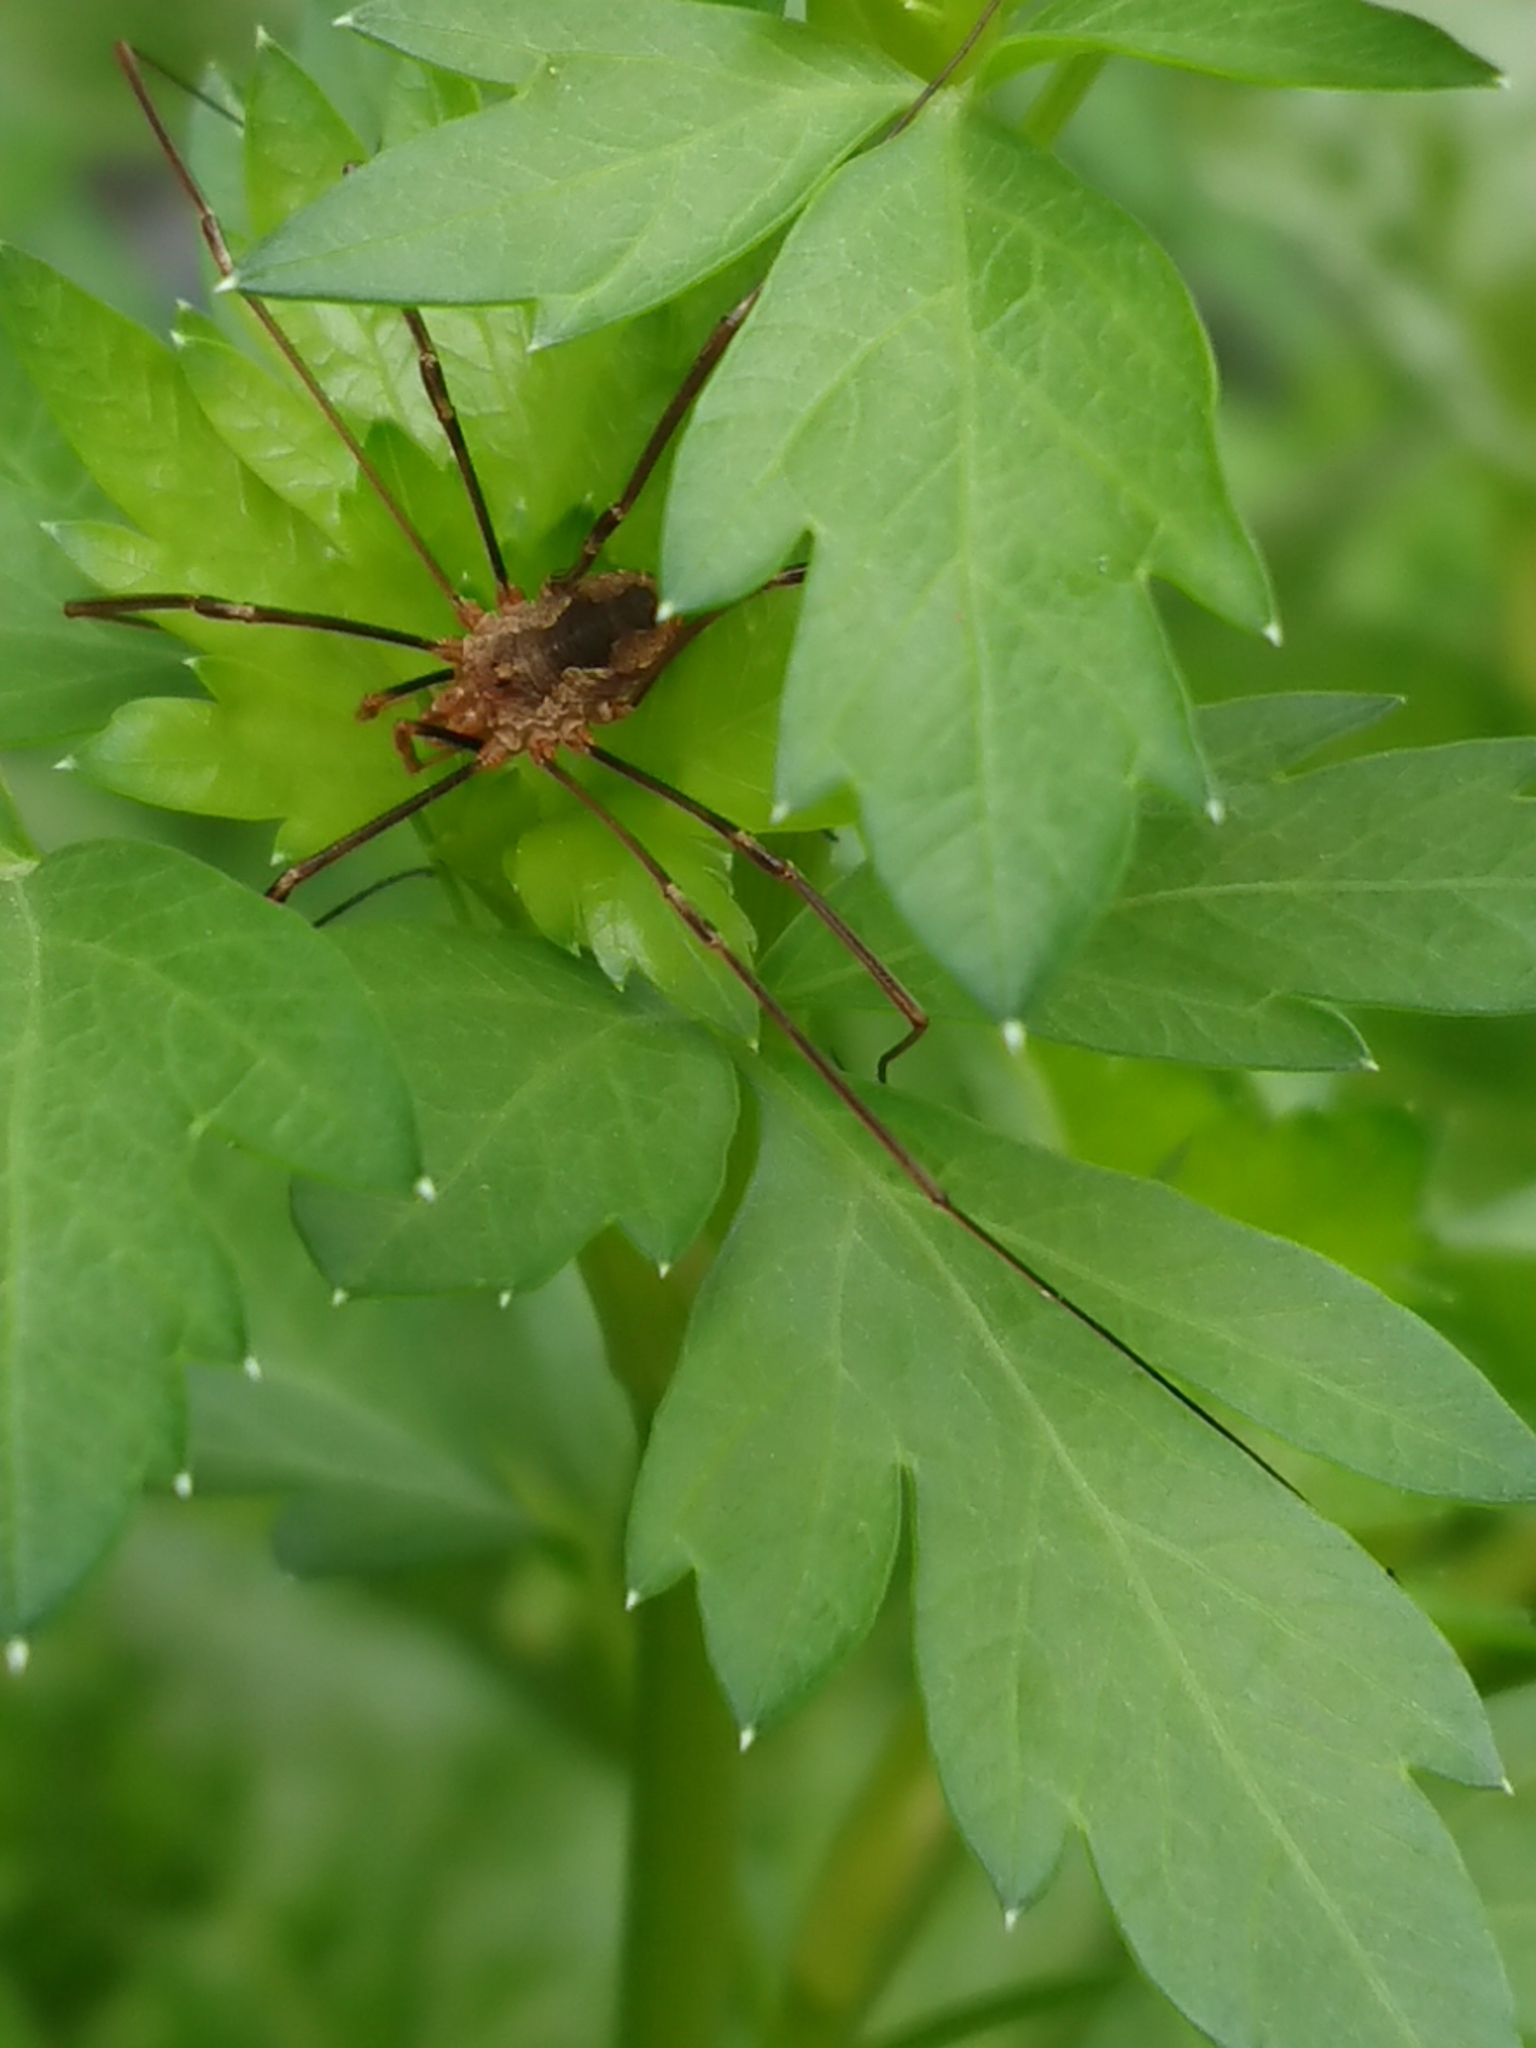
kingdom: Animalia
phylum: Arthropoda
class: Arachnida
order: Opiliones
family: Phalangiidae
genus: Phalangium
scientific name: Phalangium opilio
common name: Daddy longleg
